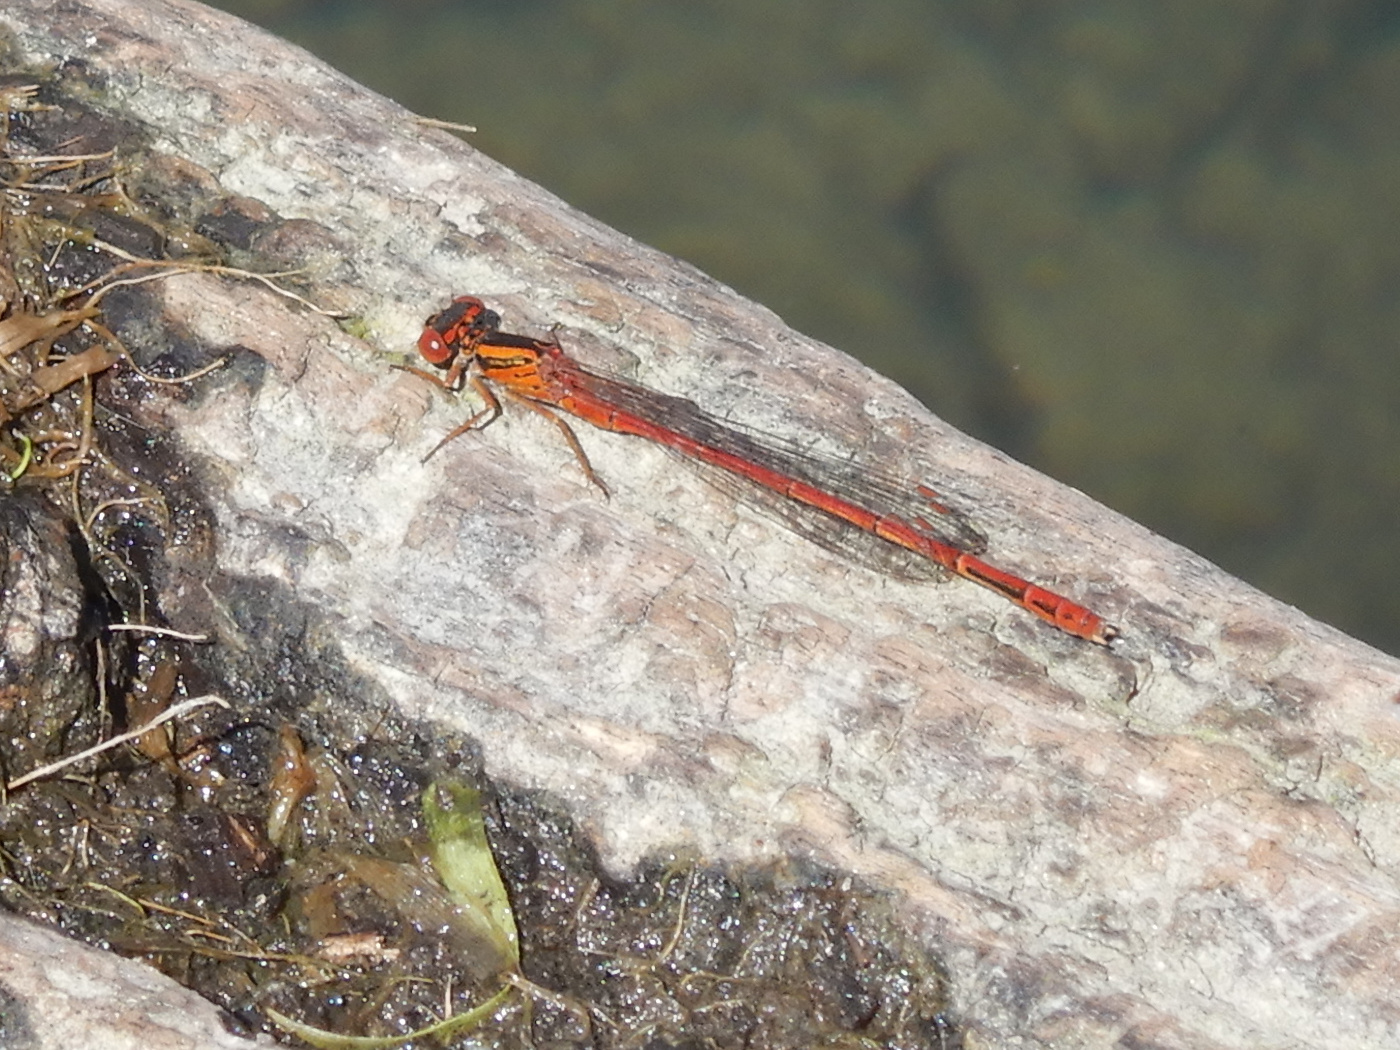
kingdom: Animalia
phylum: Arthropoda
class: Insecta
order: Odonata
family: Coenagrionidae
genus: Xanthocnemis
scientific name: Xanthocnemis zealandica
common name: Common redcoat damselfly
